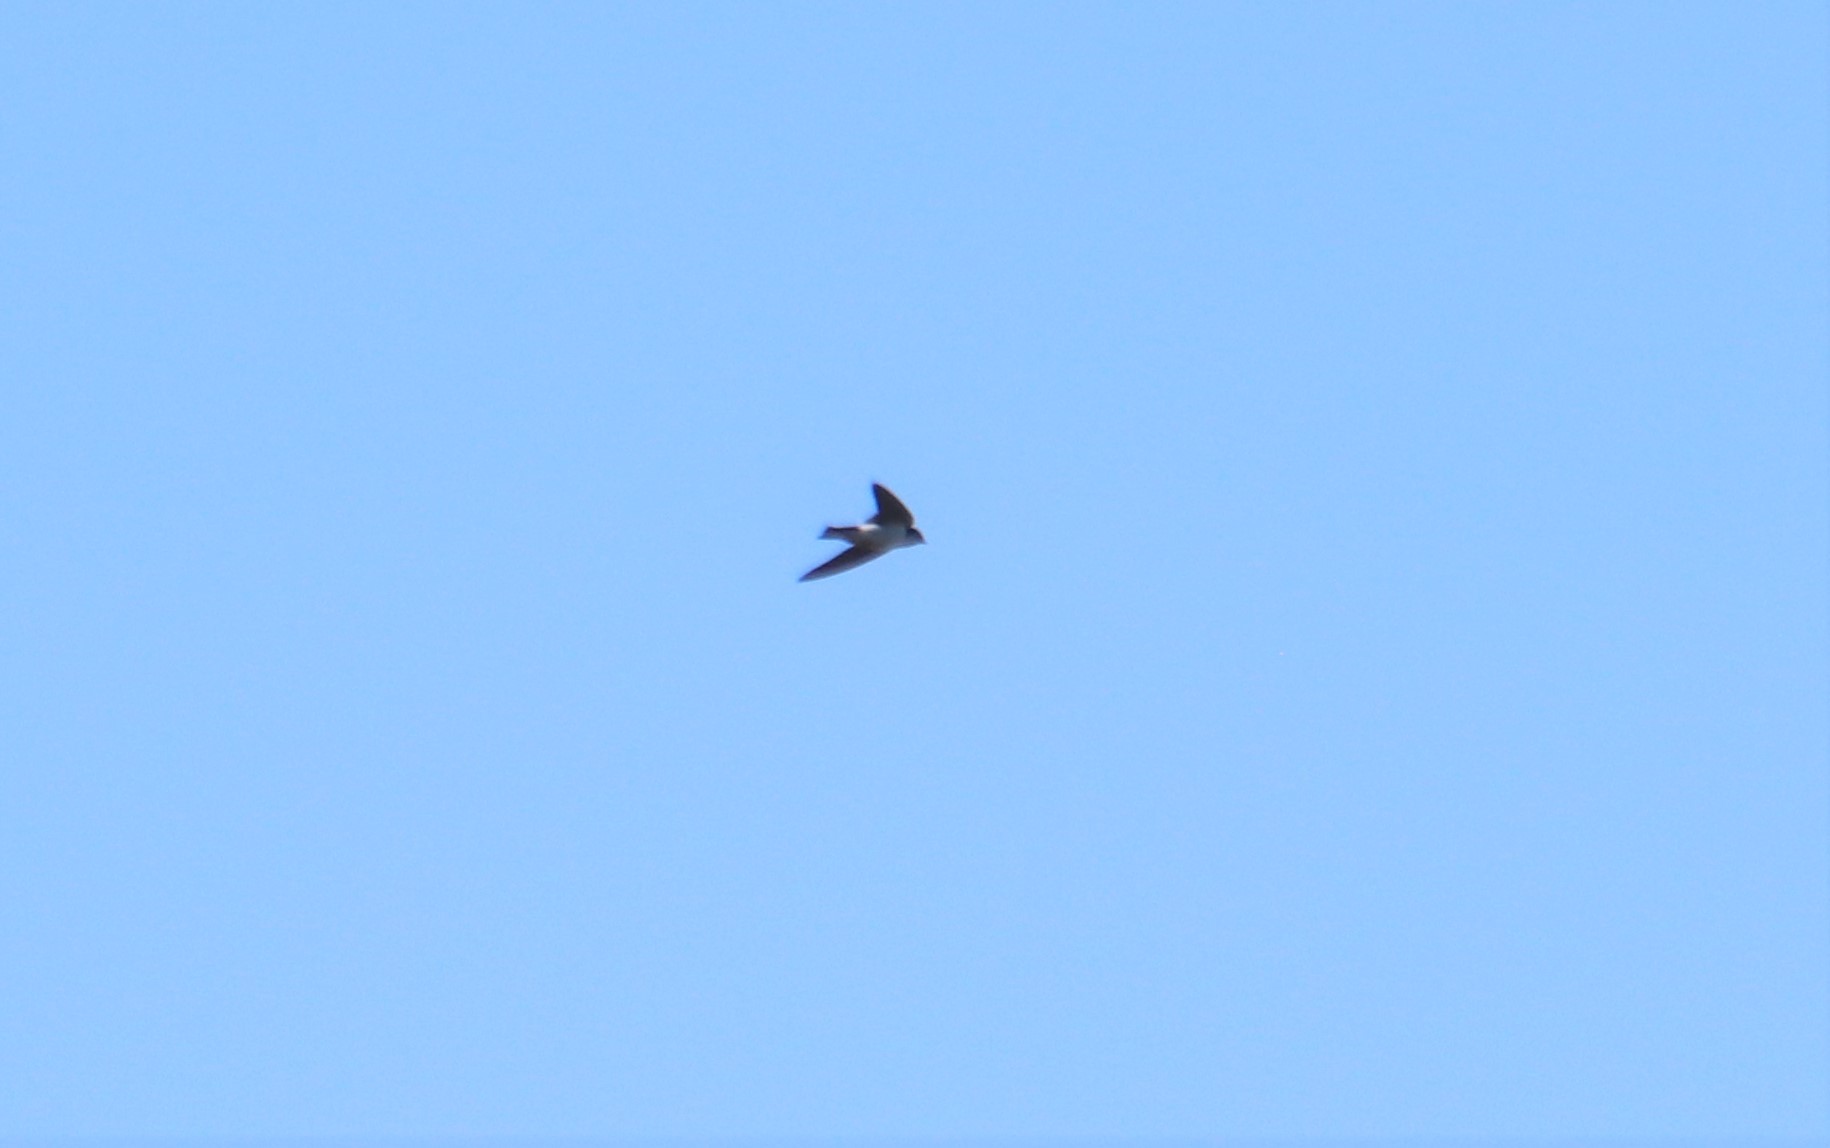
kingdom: Animalia
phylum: Chordata
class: Aves
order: Passeriformes
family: Hirundinidae
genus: Tachycineta
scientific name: Tachycineta thalassina
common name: Violet-green swallow
